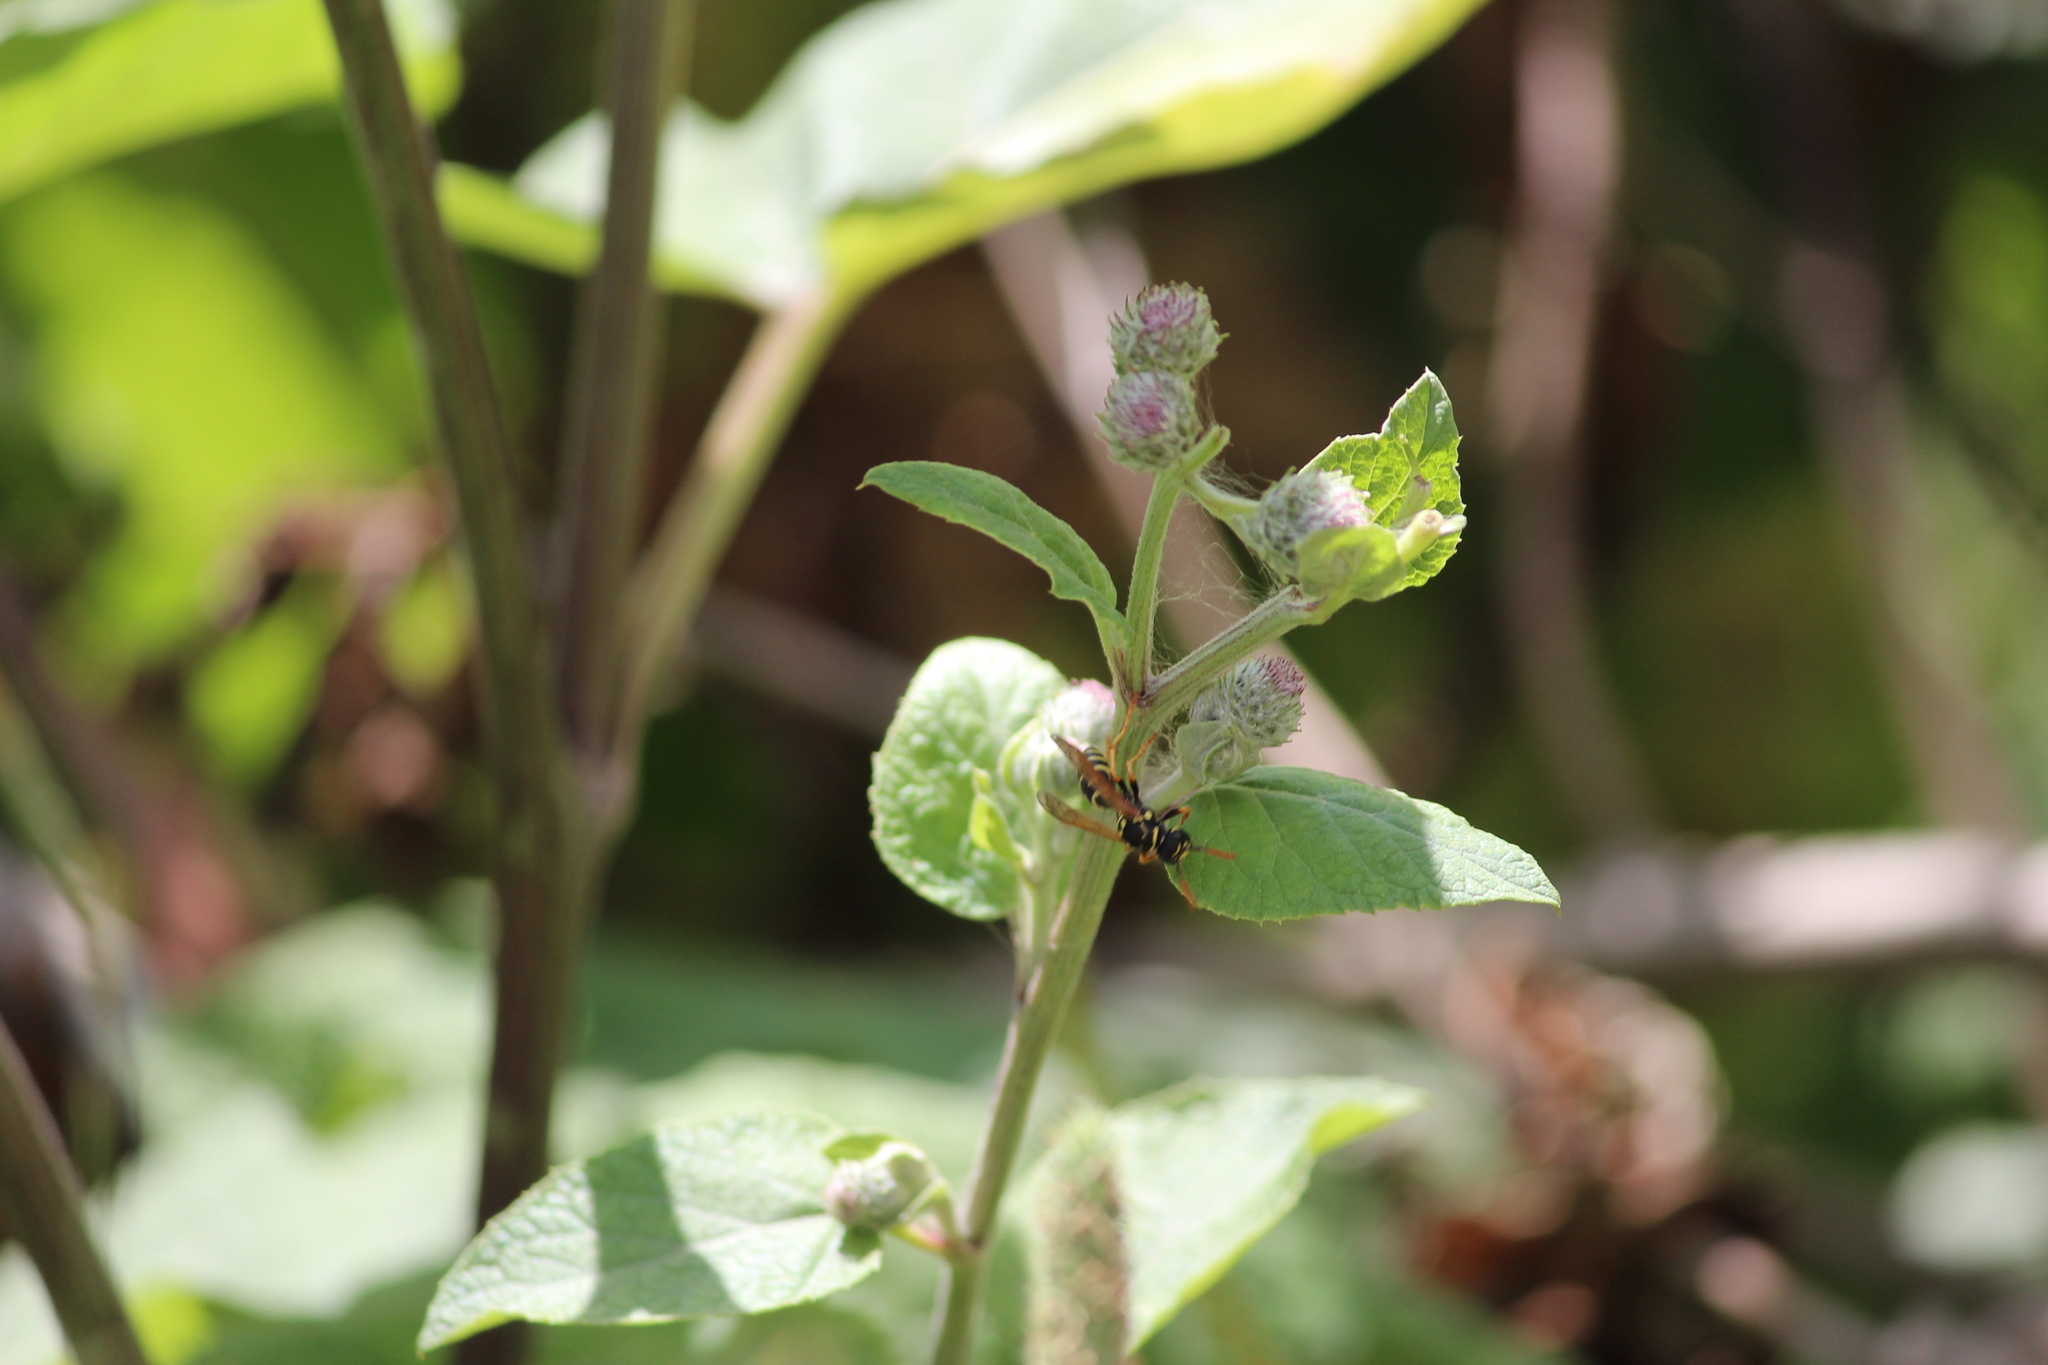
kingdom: Animalia
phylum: Arthropoda
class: Insecta
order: Hymenoptera
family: Eumenidae
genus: Polistes
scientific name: Polistes dominula
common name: Paper wasp
